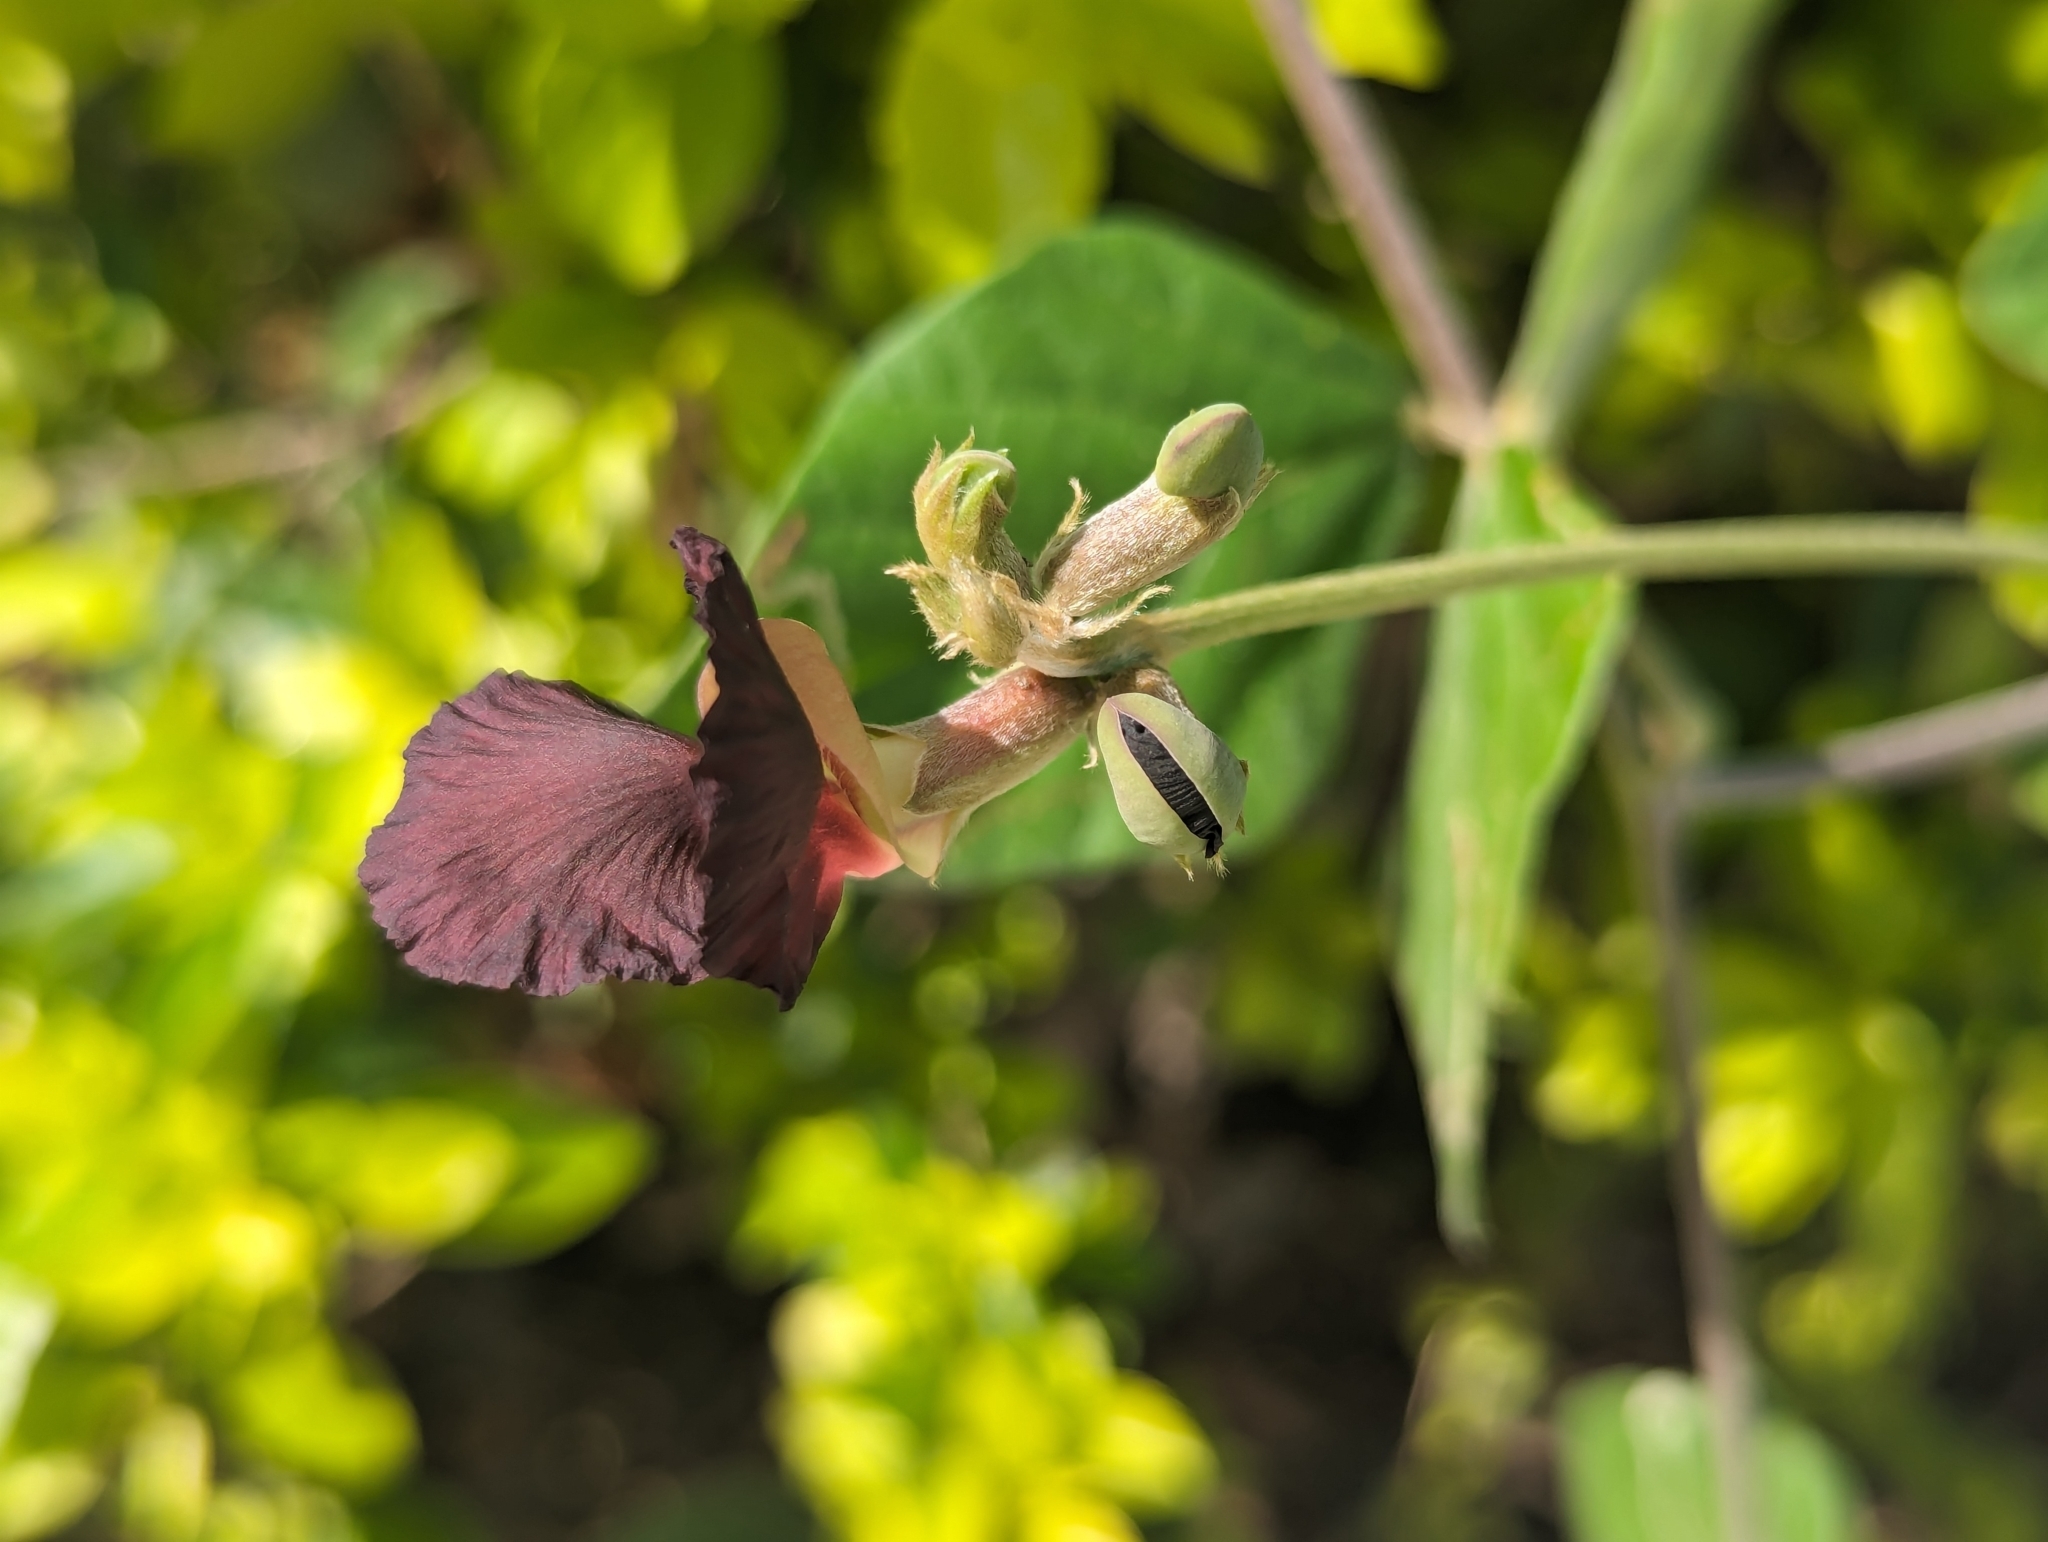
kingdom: Plantae
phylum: Tracheophyta
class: Magnoliopsida
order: Fabales
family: Fabaceae
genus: Macroptilium
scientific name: Macroptilium atropurpureum
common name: Purple bushbean
